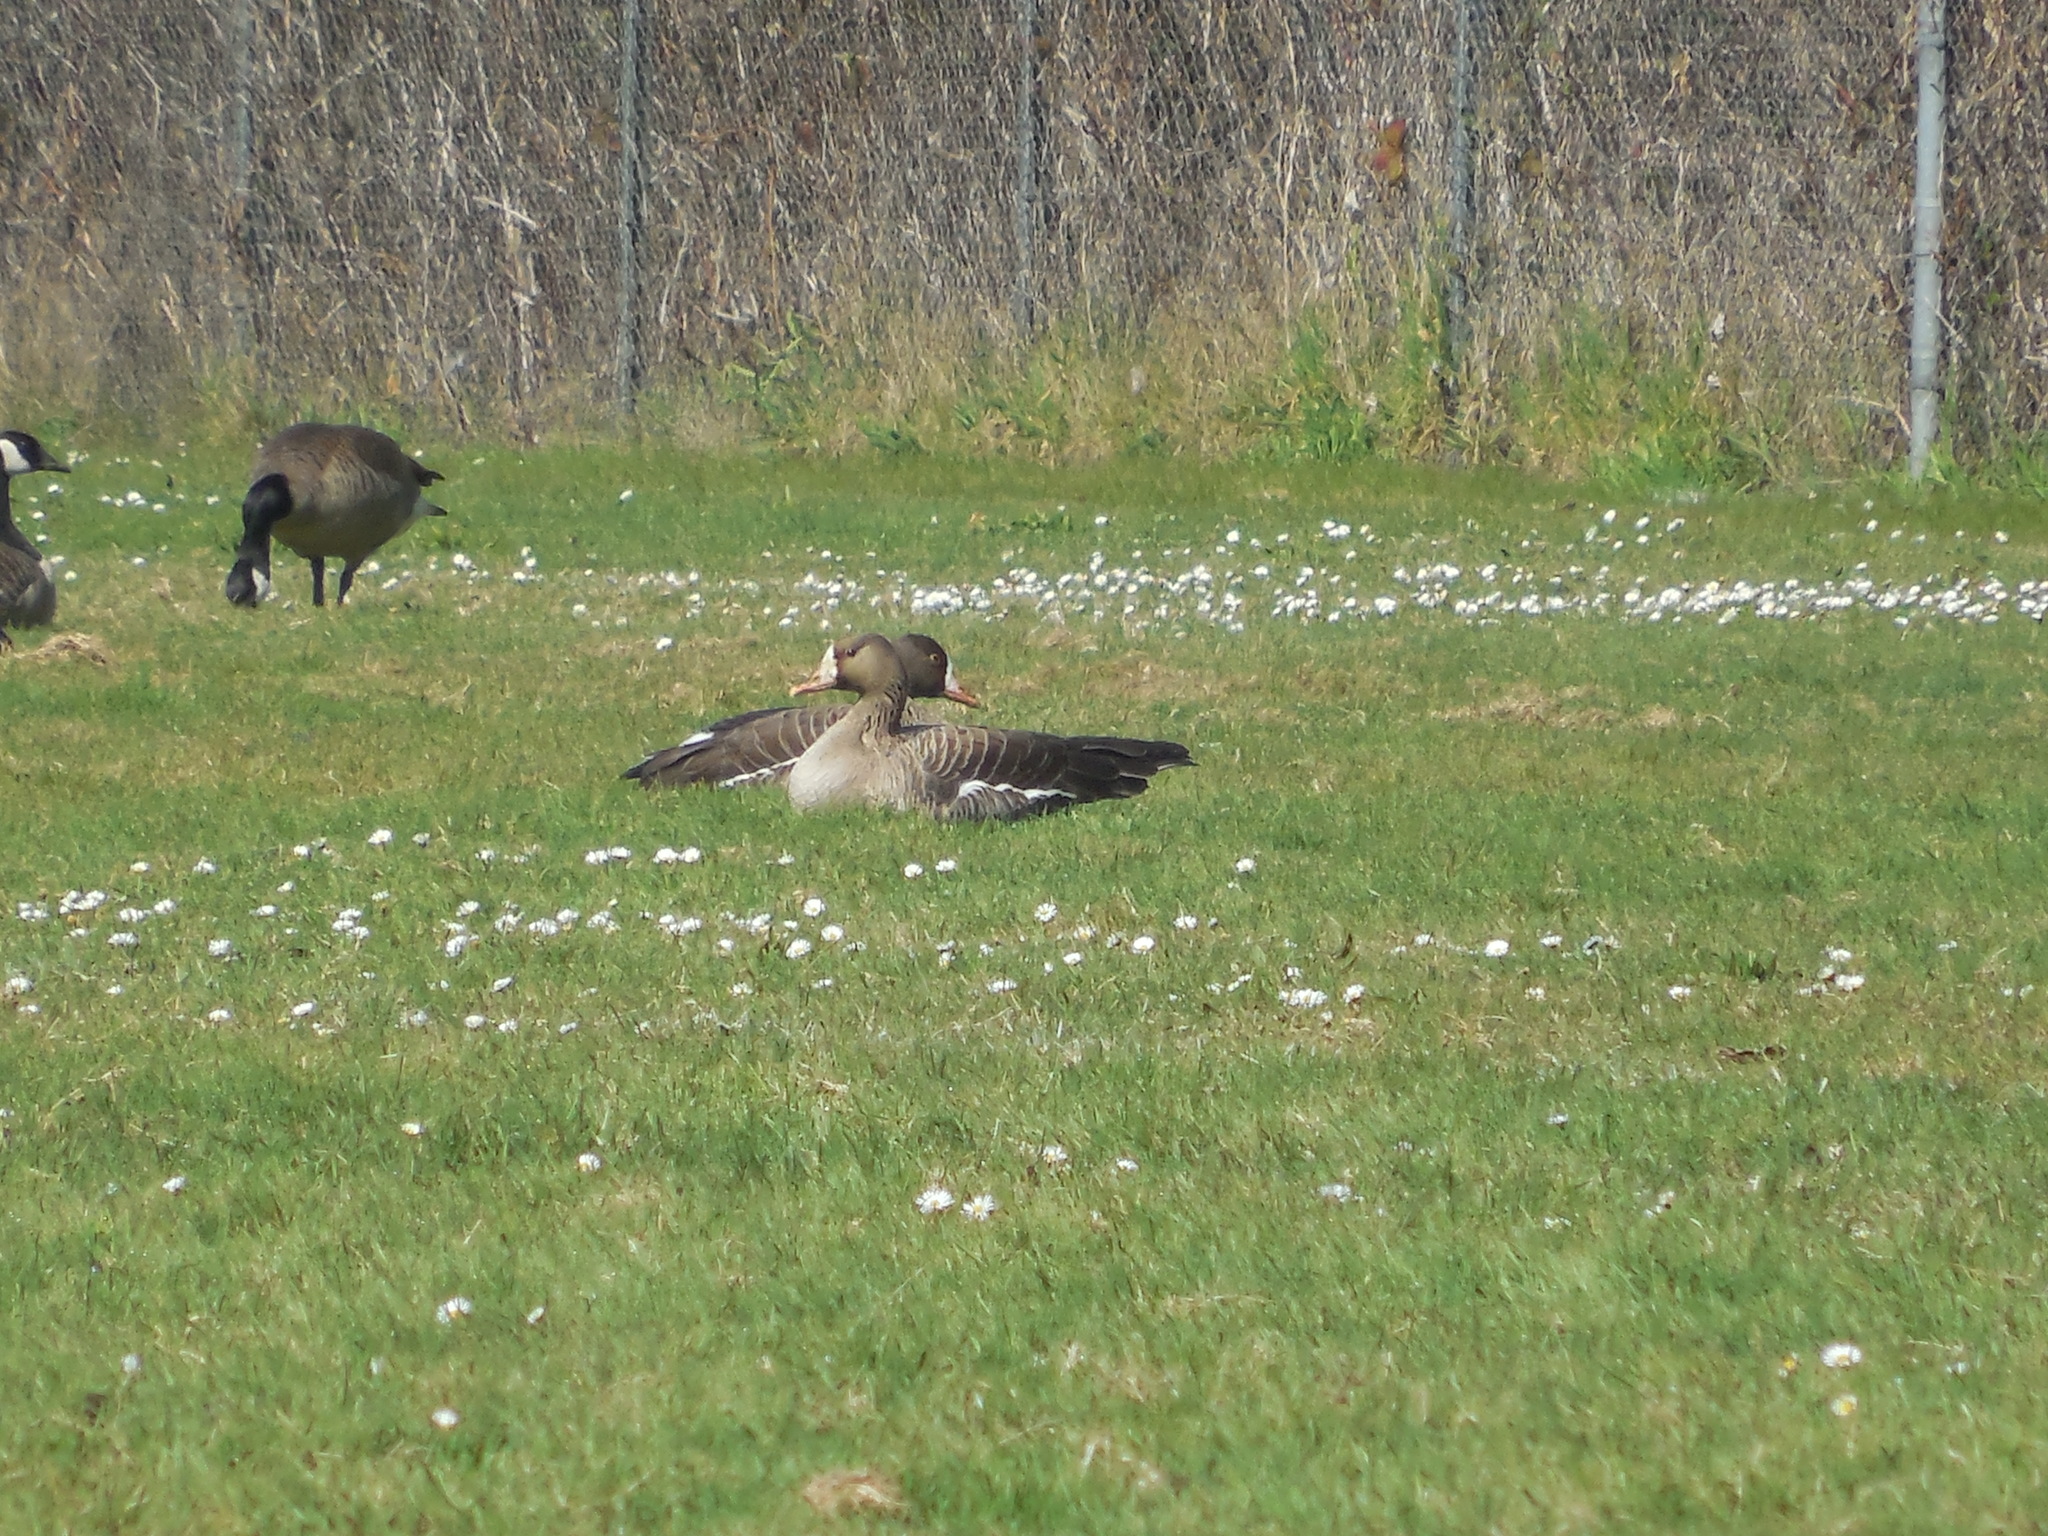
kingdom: Animalia
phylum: Chordata
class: Aves
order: Anseriformes
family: Anatidae
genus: Anser
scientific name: Anser albifrons
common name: Greater white-fronted goose
